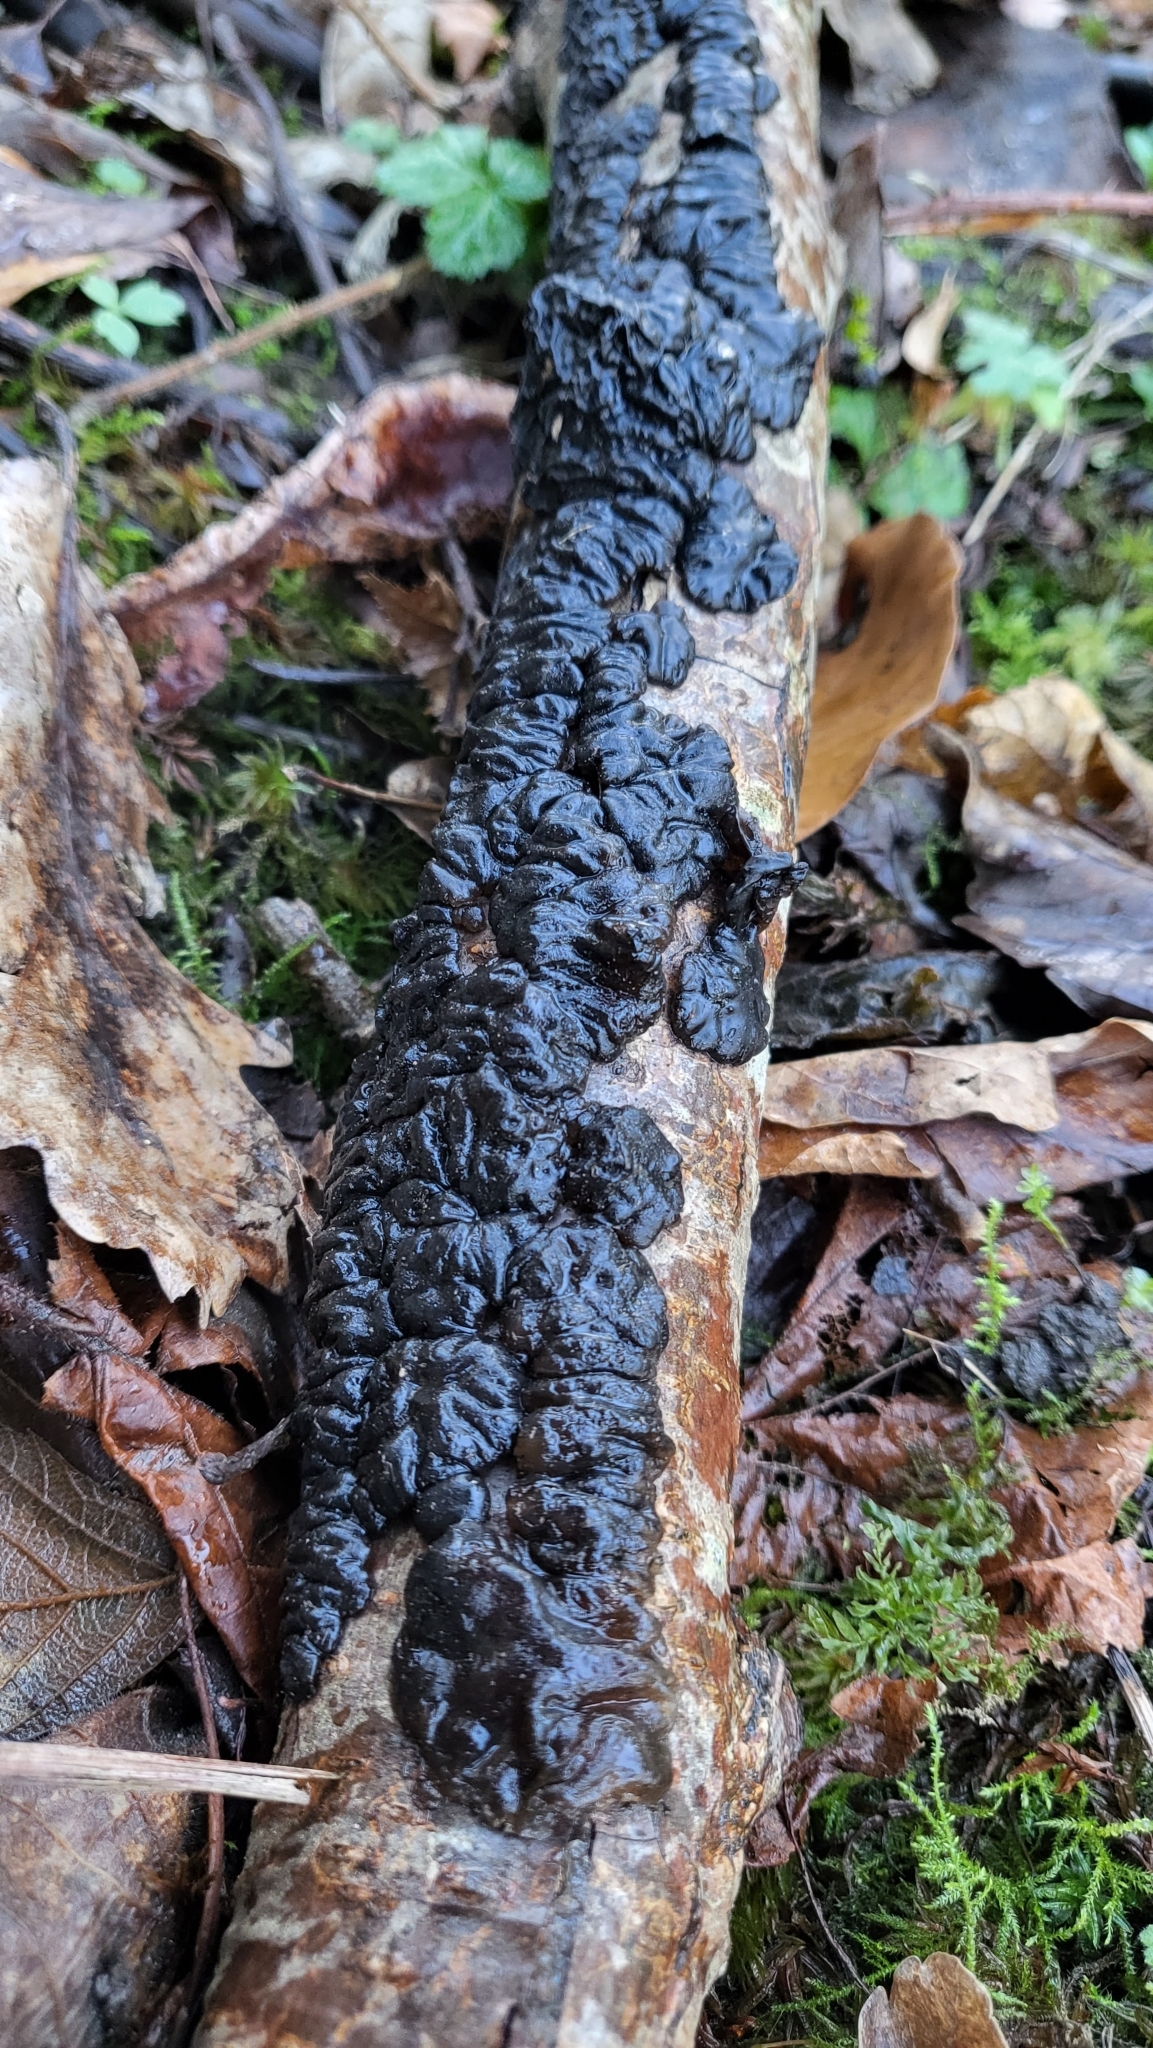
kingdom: Fungi
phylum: Basidiomycota
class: Agaricomycetes
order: Auriculariales
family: Auriculariaceae
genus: Exidia
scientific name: Exidia nigricans
